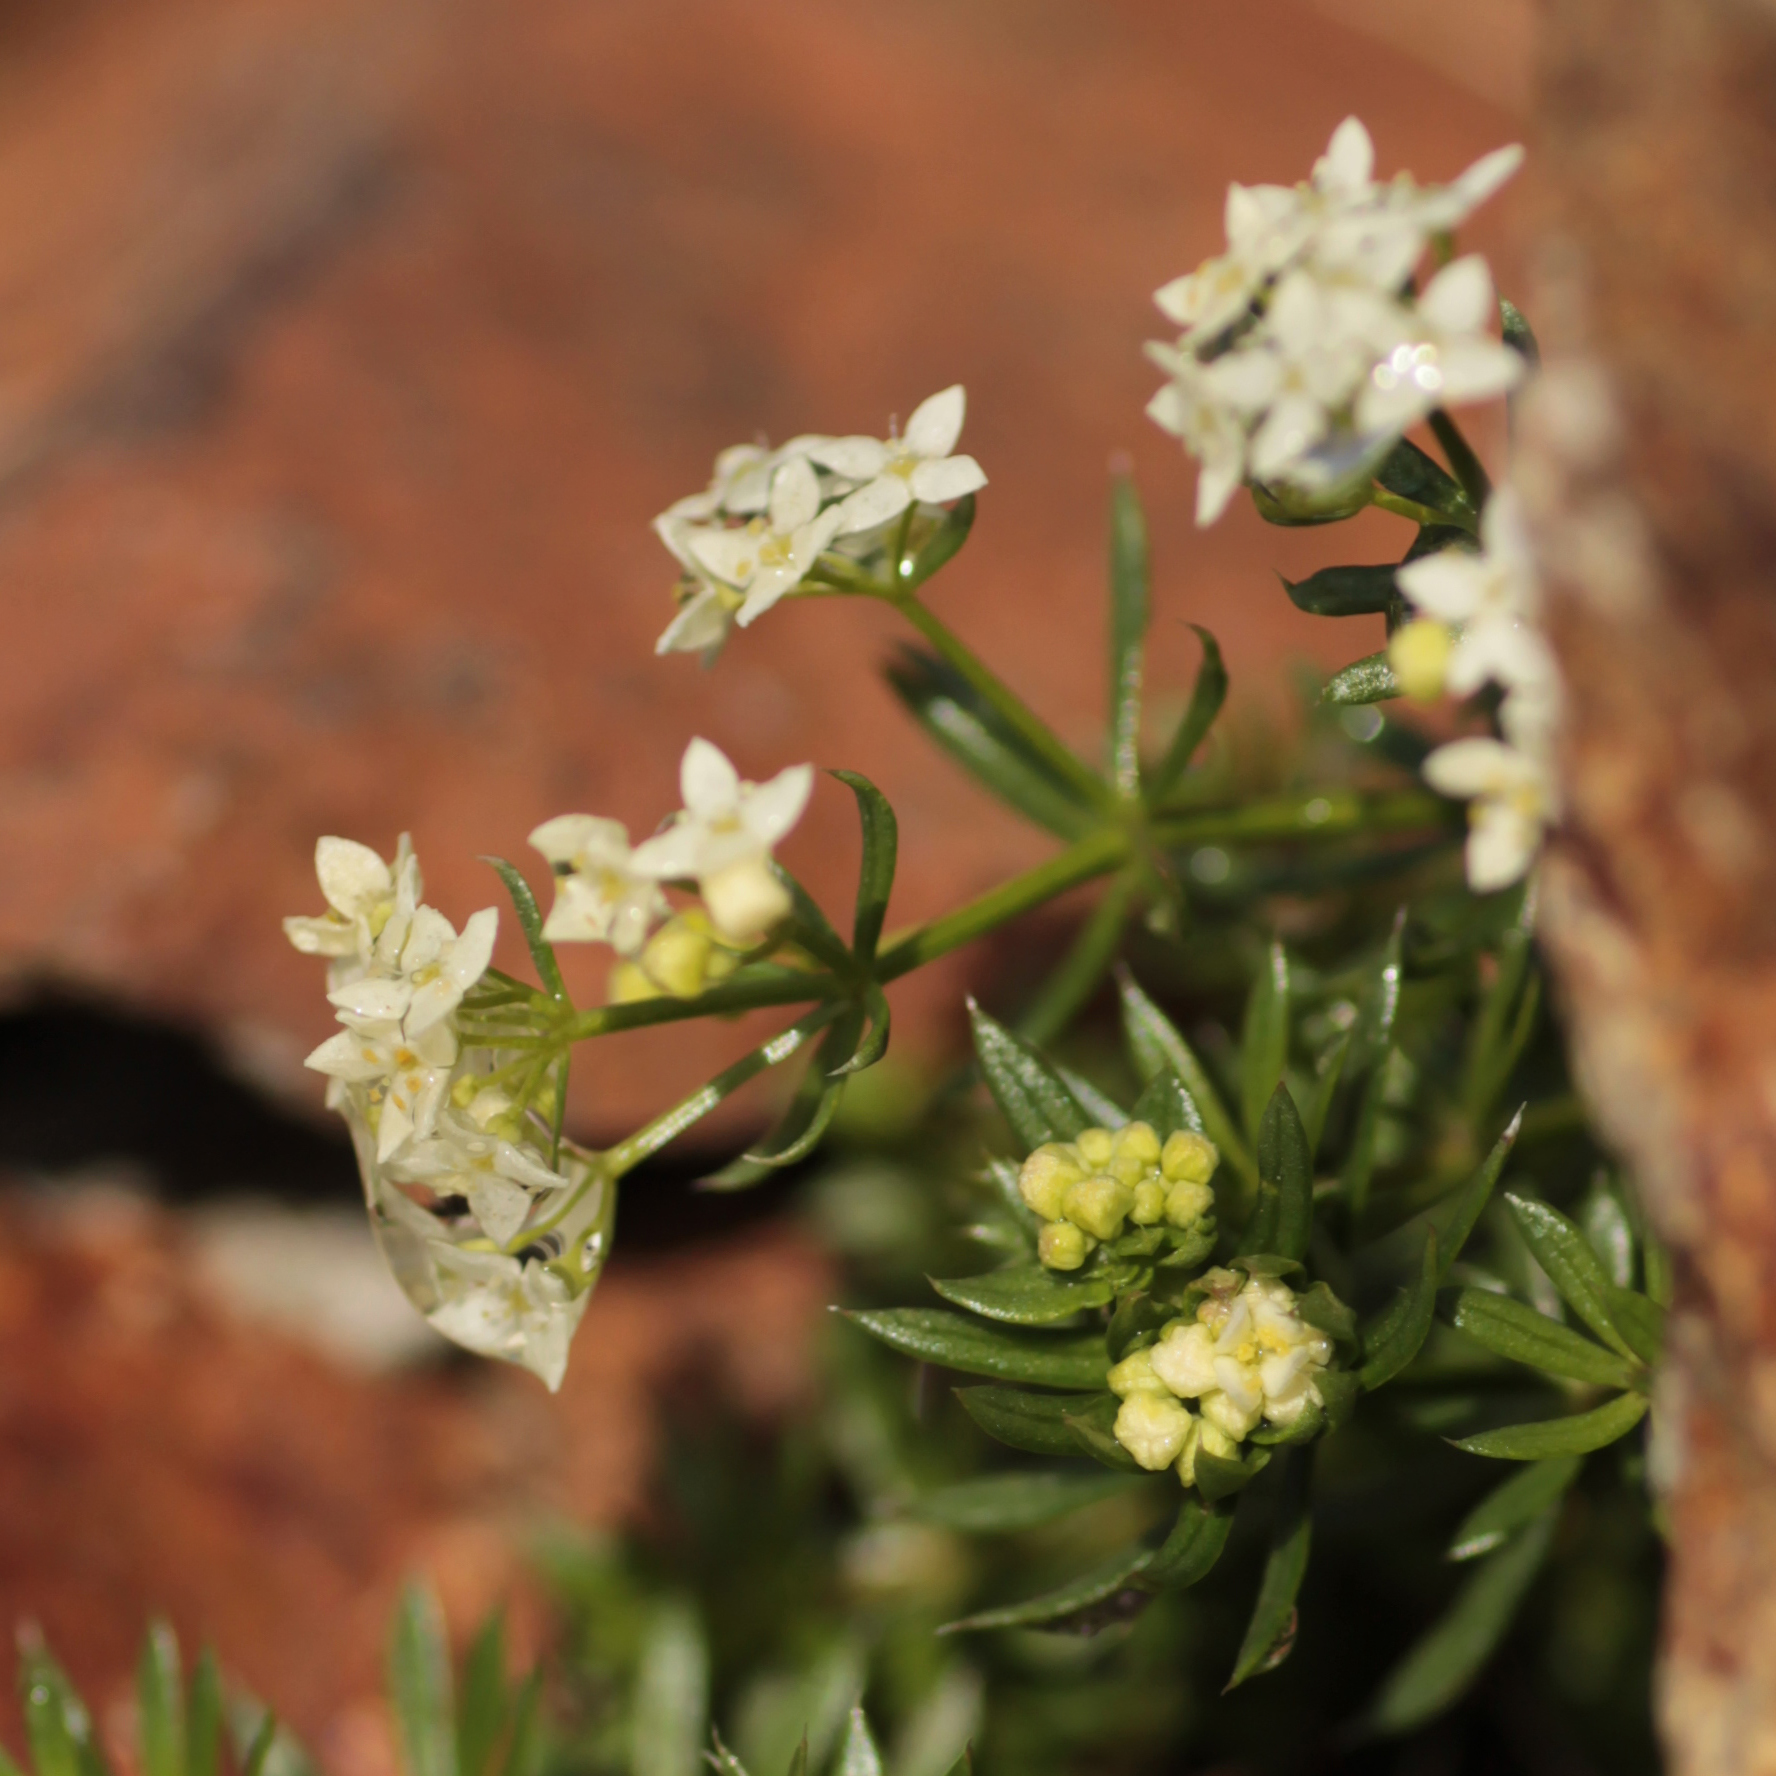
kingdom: Plantae
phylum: Tracheophyta
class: Magnoliopsida
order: Gentianales
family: Rubiaceae
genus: Galium
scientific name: Galium anisophyllon
